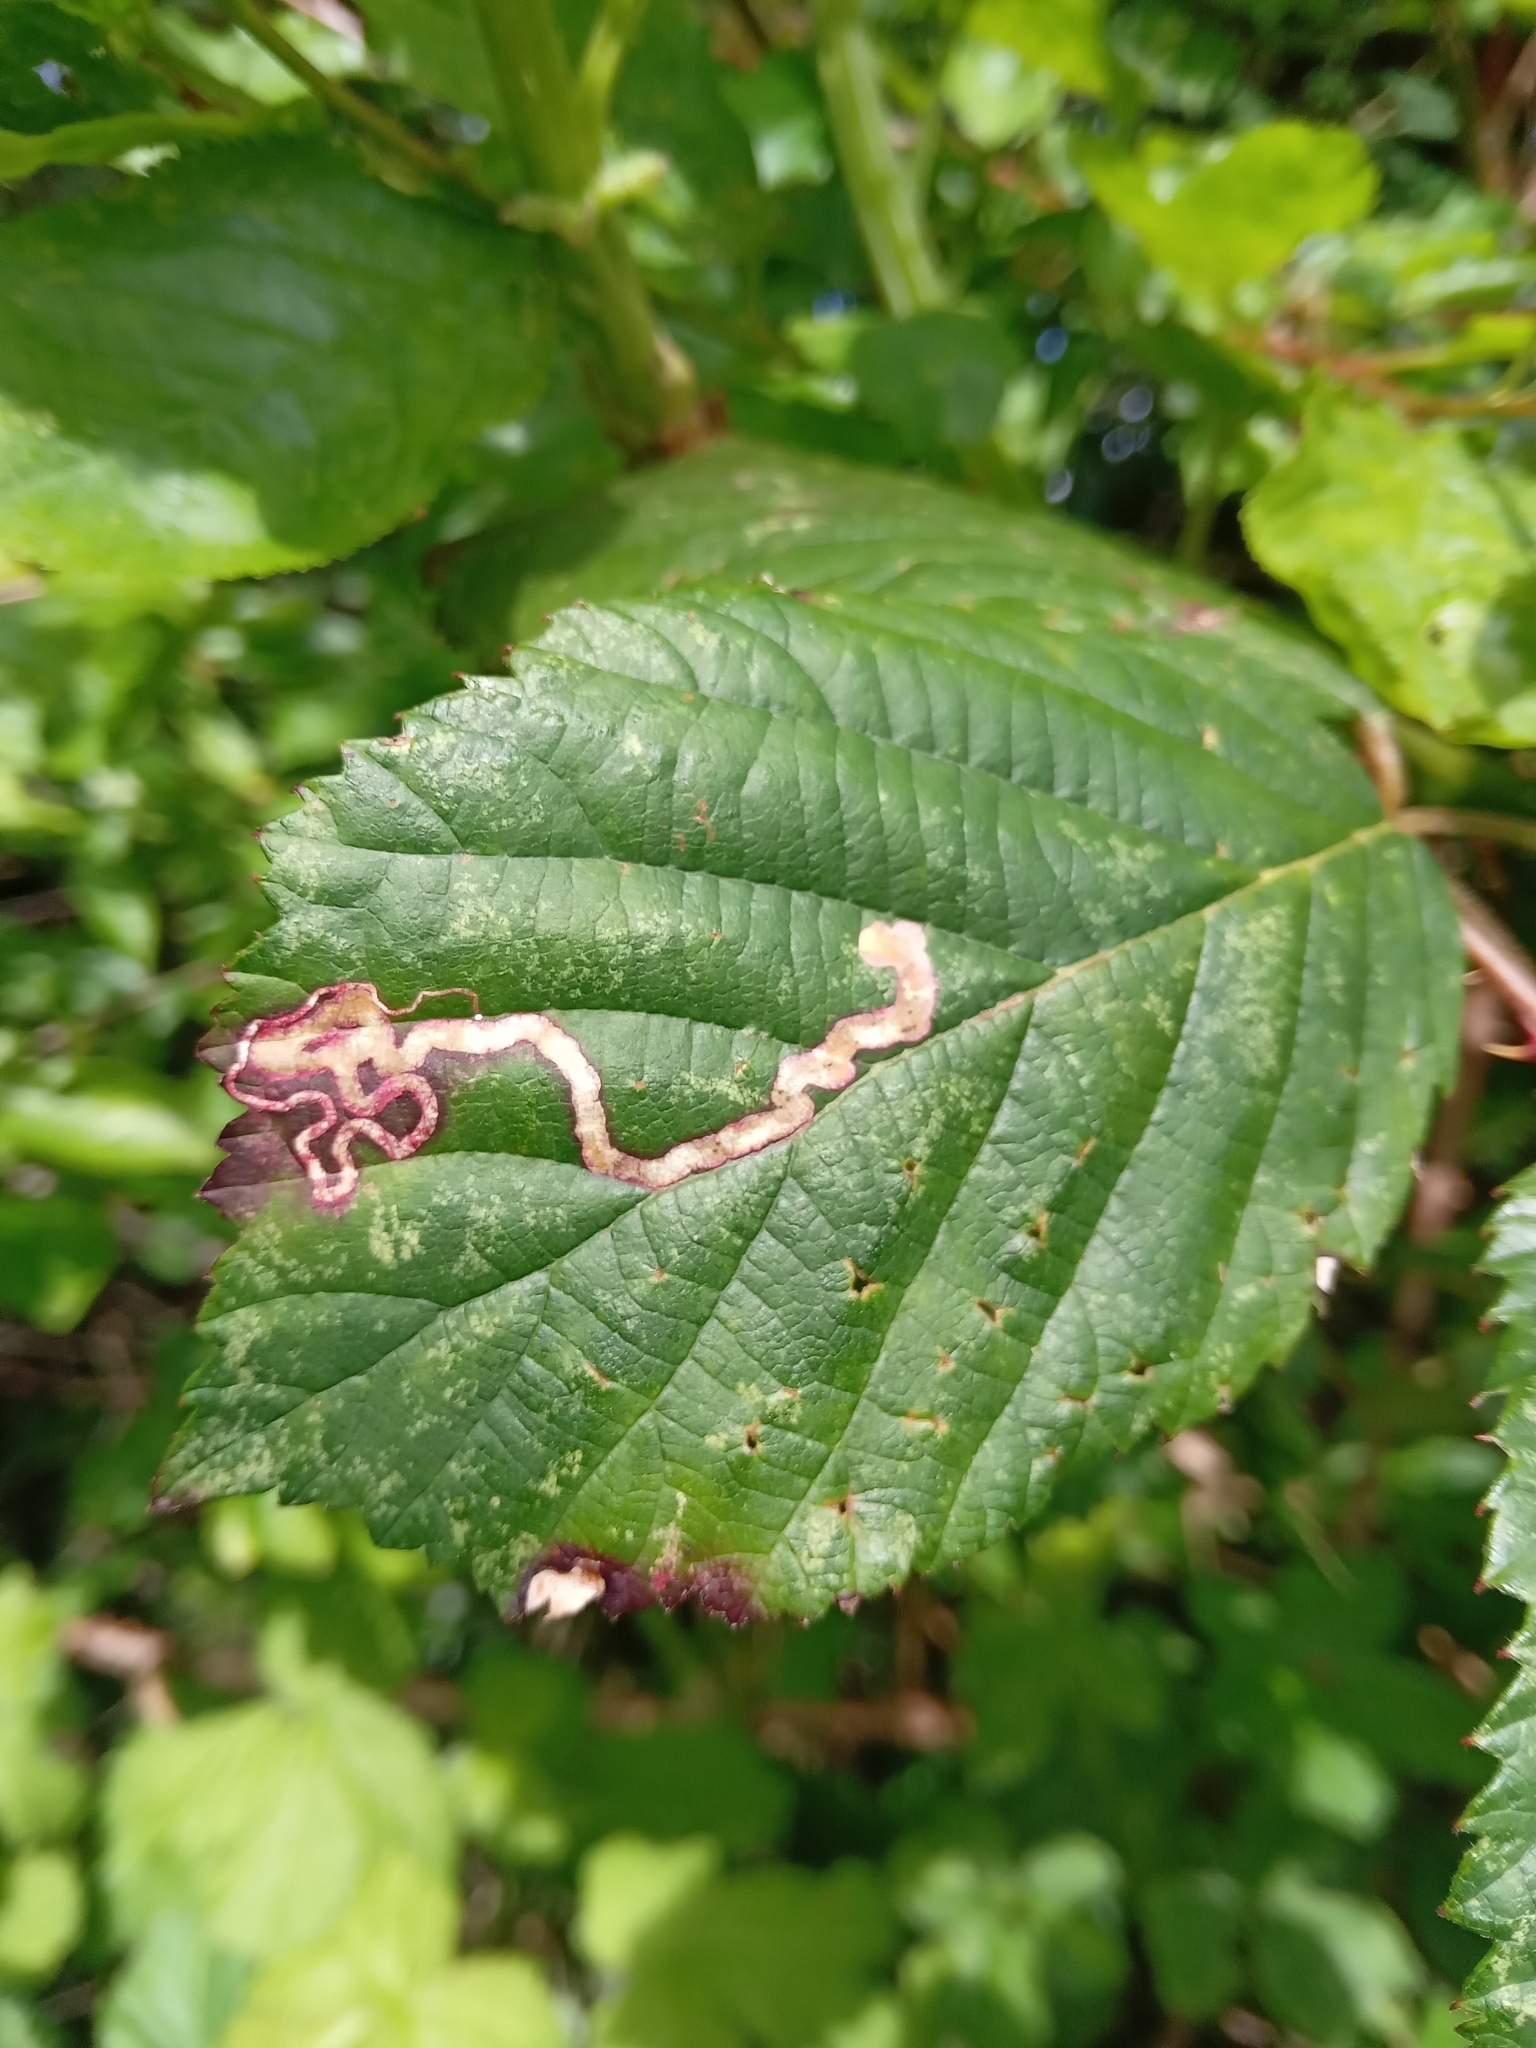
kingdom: Animalia
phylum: Arthropoda
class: Insecta
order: Lepidoptera
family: Nepticulidae
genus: Stigmella
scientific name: Stigmella aurella
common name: Golden pigmy
